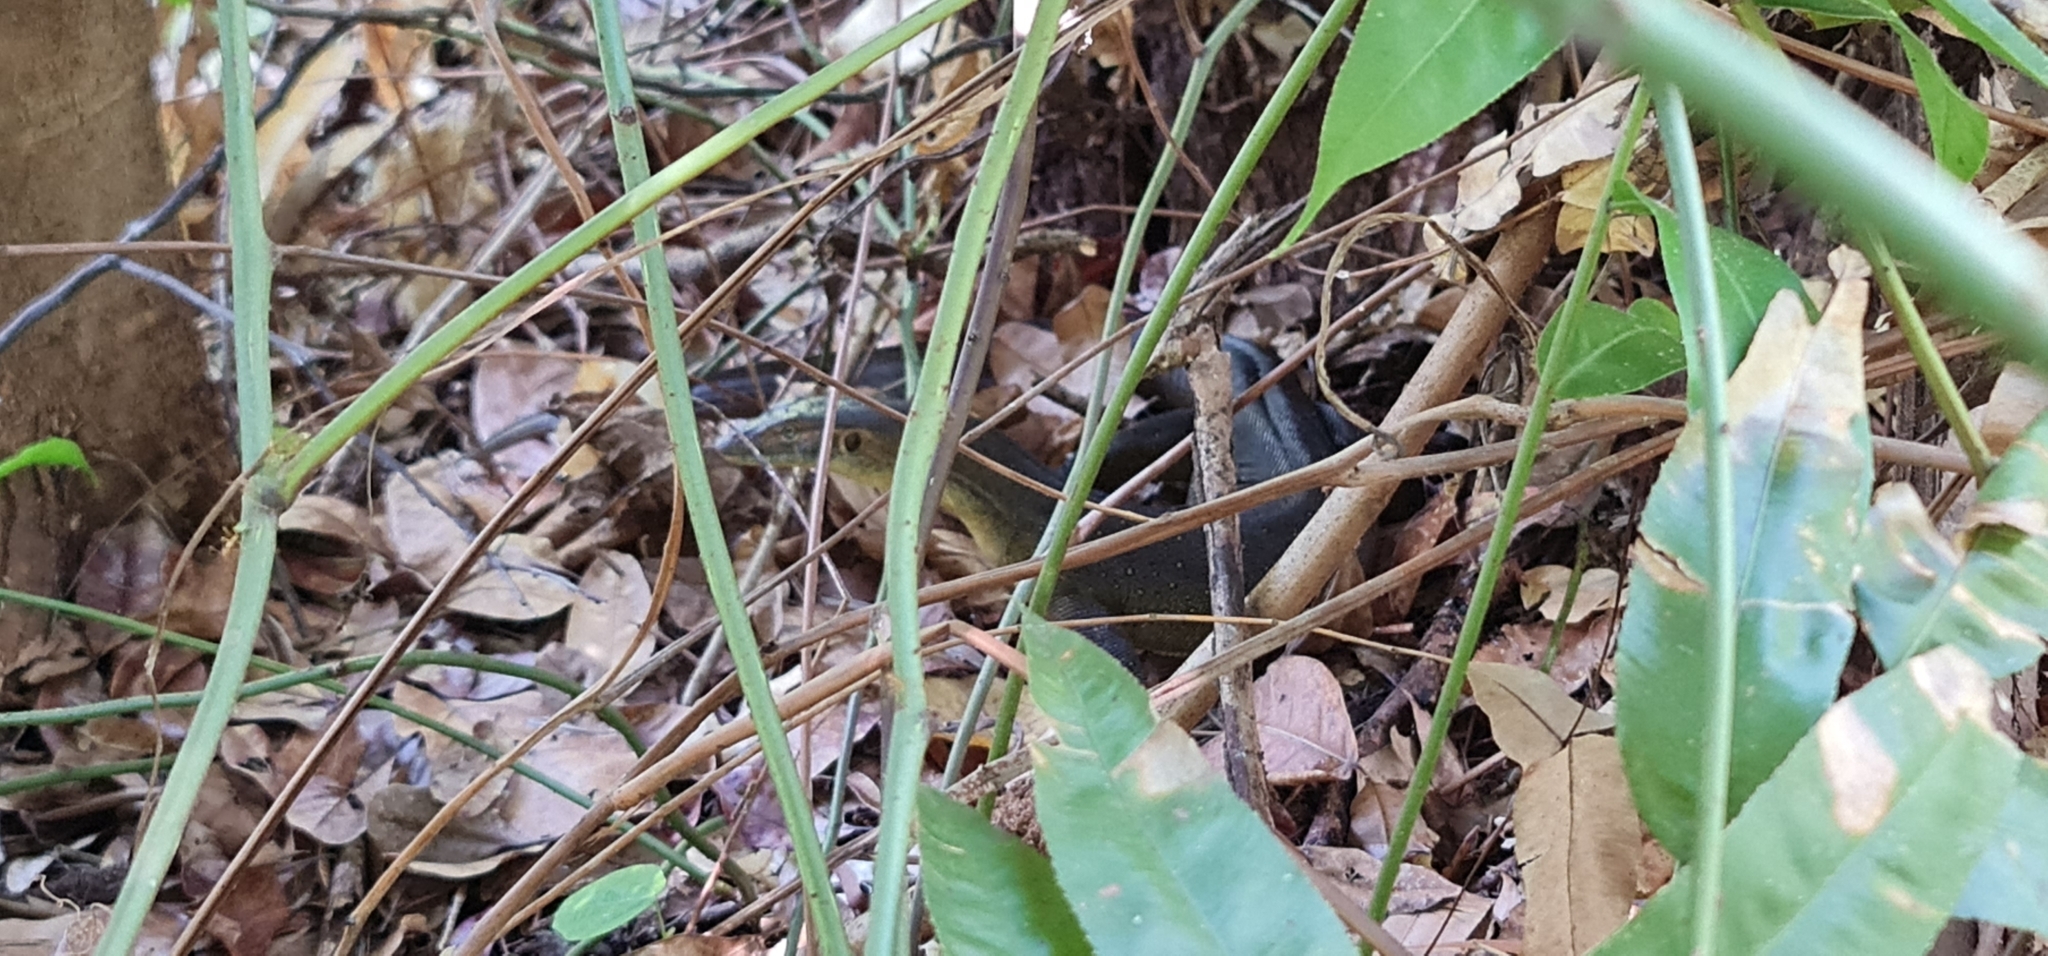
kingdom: Animalia
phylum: Chordata
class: Squamata
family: Varanidae
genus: Varanus
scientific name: Varanus mertensi
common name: Mertens's water monitor
